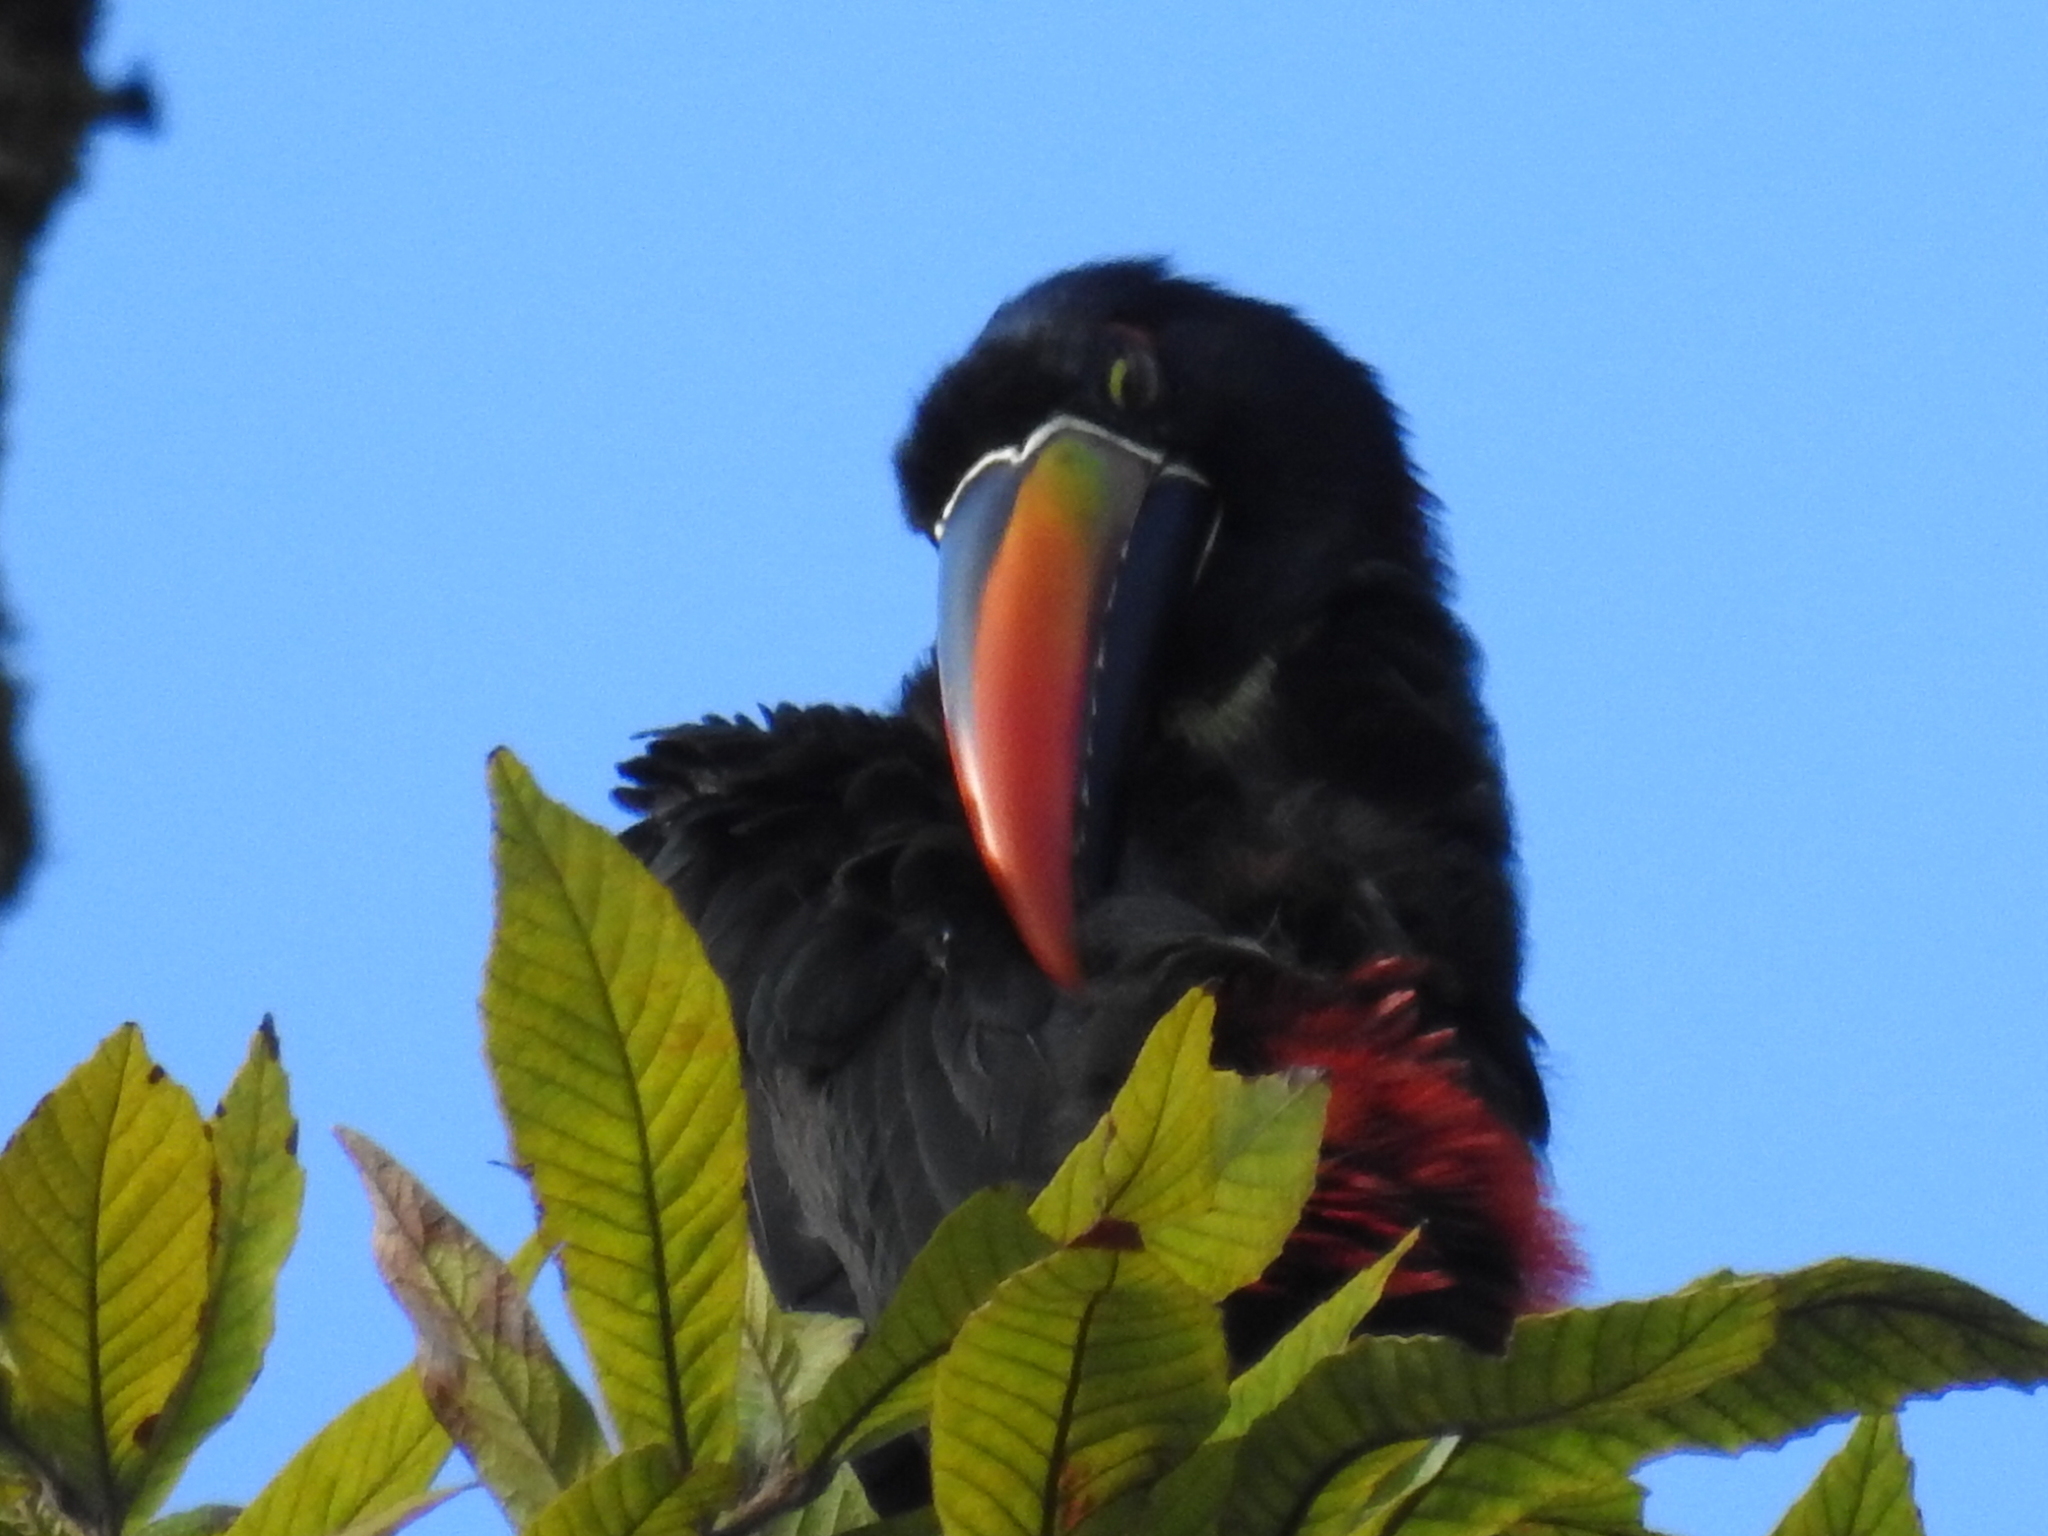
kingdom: Animalia
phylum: Chordata
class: Aves
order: Piciformes
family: Ramphastidae
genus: Pteroglossus
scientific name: Pteroglossus frantzii
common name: Fiery-billed aracari
